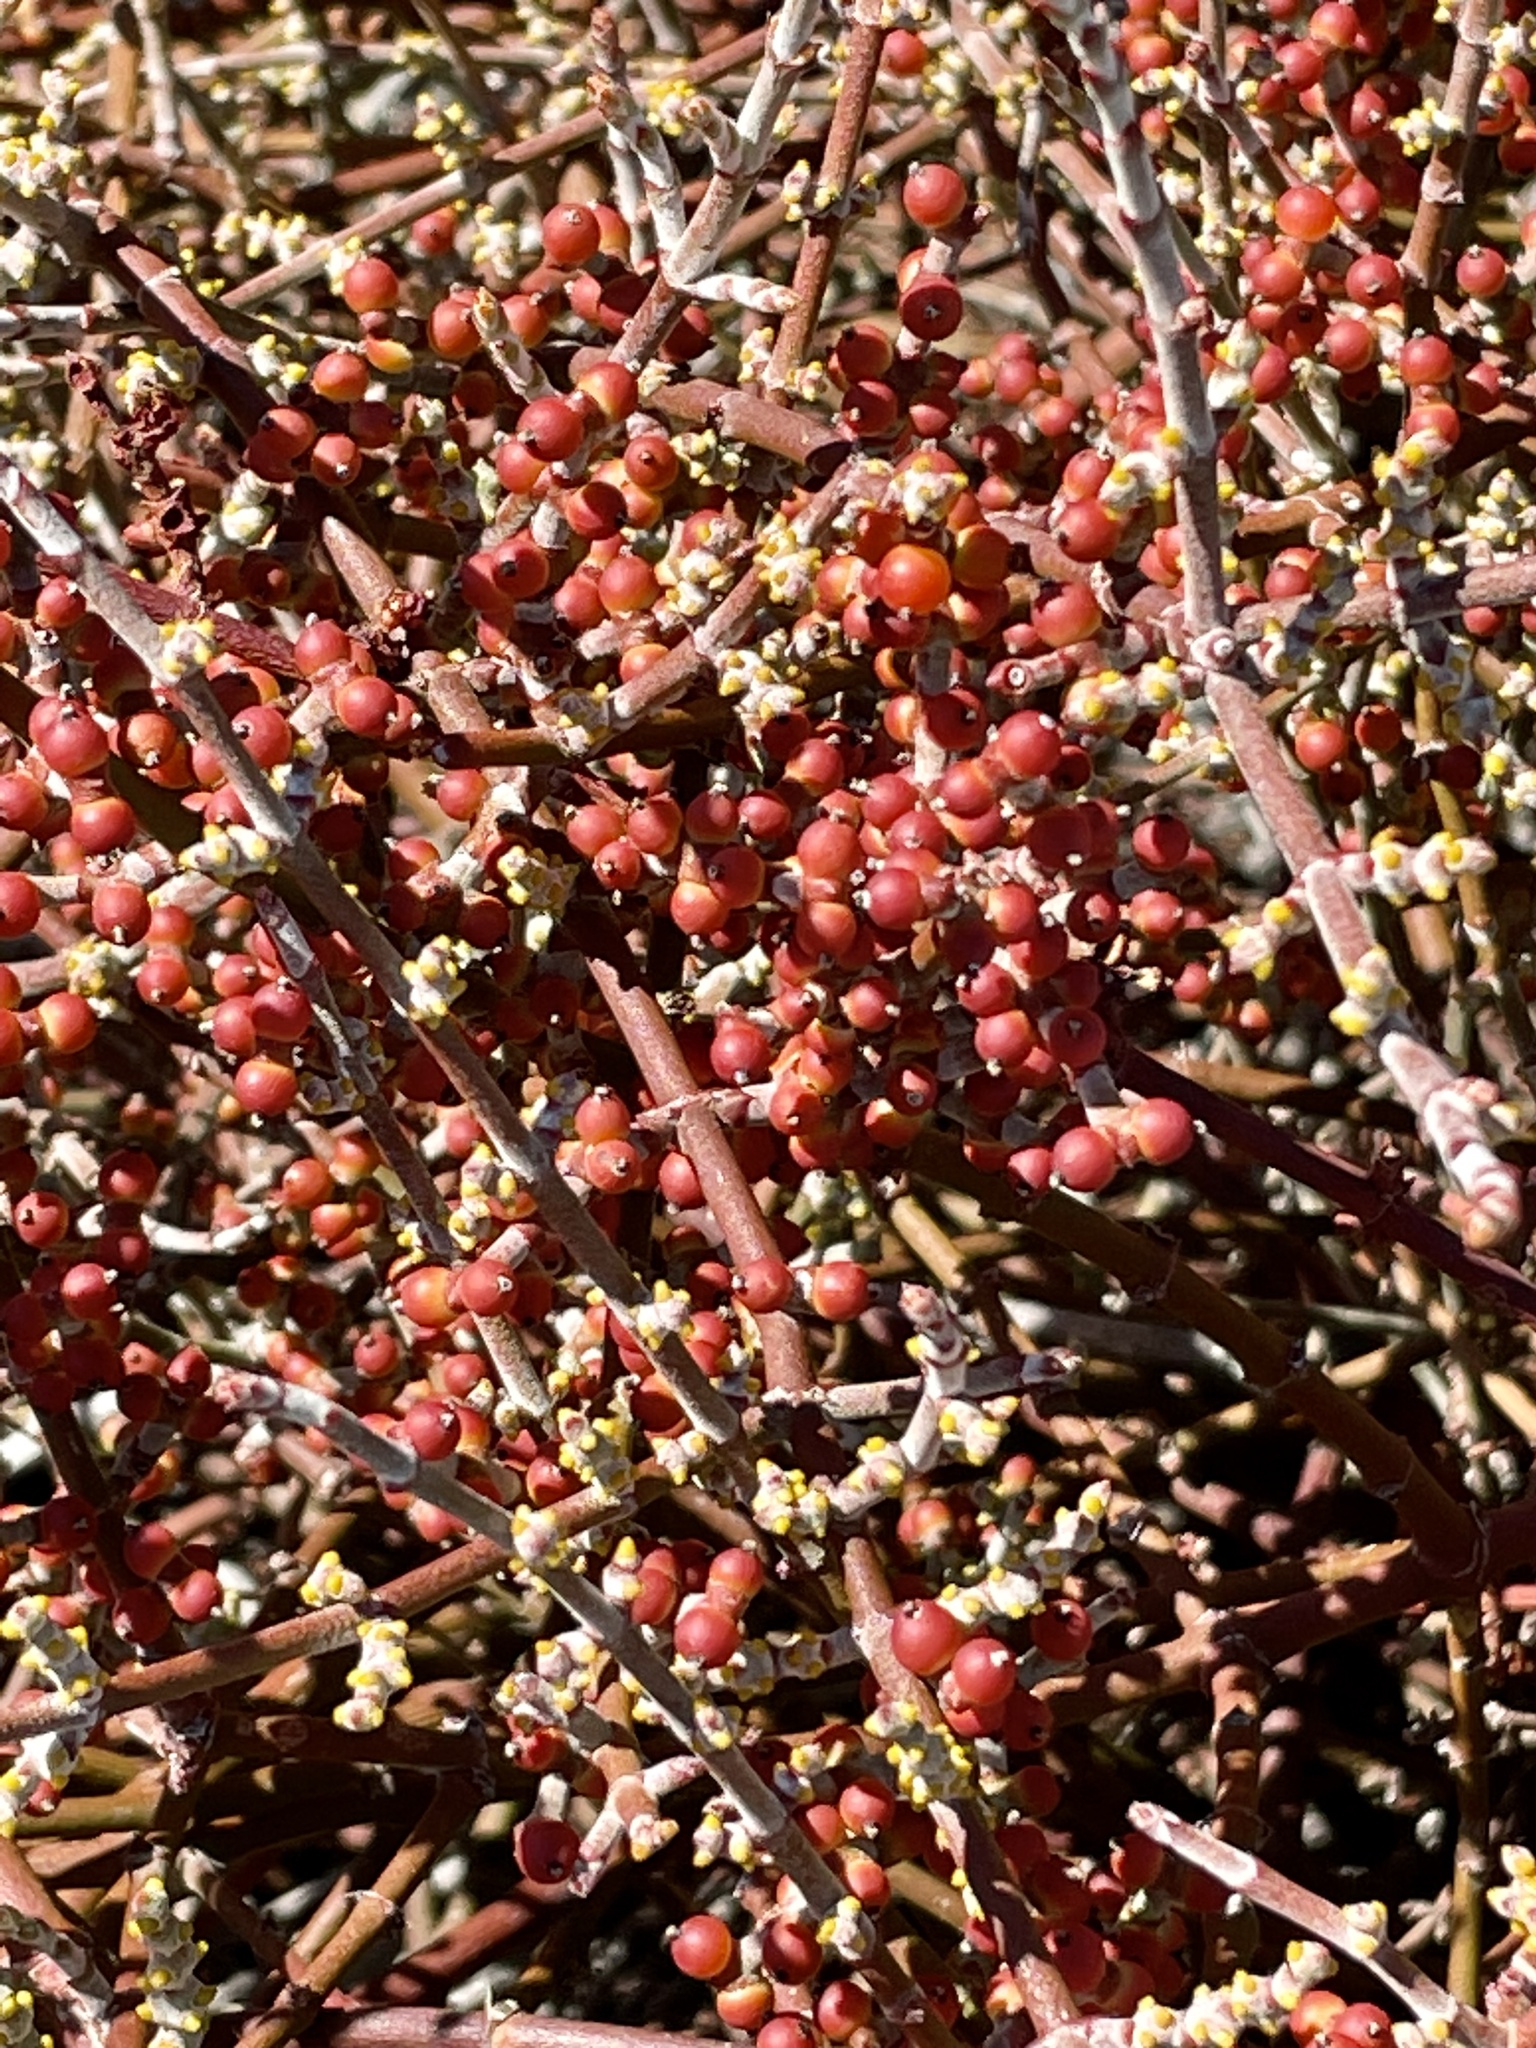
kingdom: Plantae
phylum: Tracheophyta
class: Magnoliopsida
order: Santalales
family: Viscaceae
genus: Phoradendron
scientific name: Phoradendron californicum
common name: Acacia mistletoe
